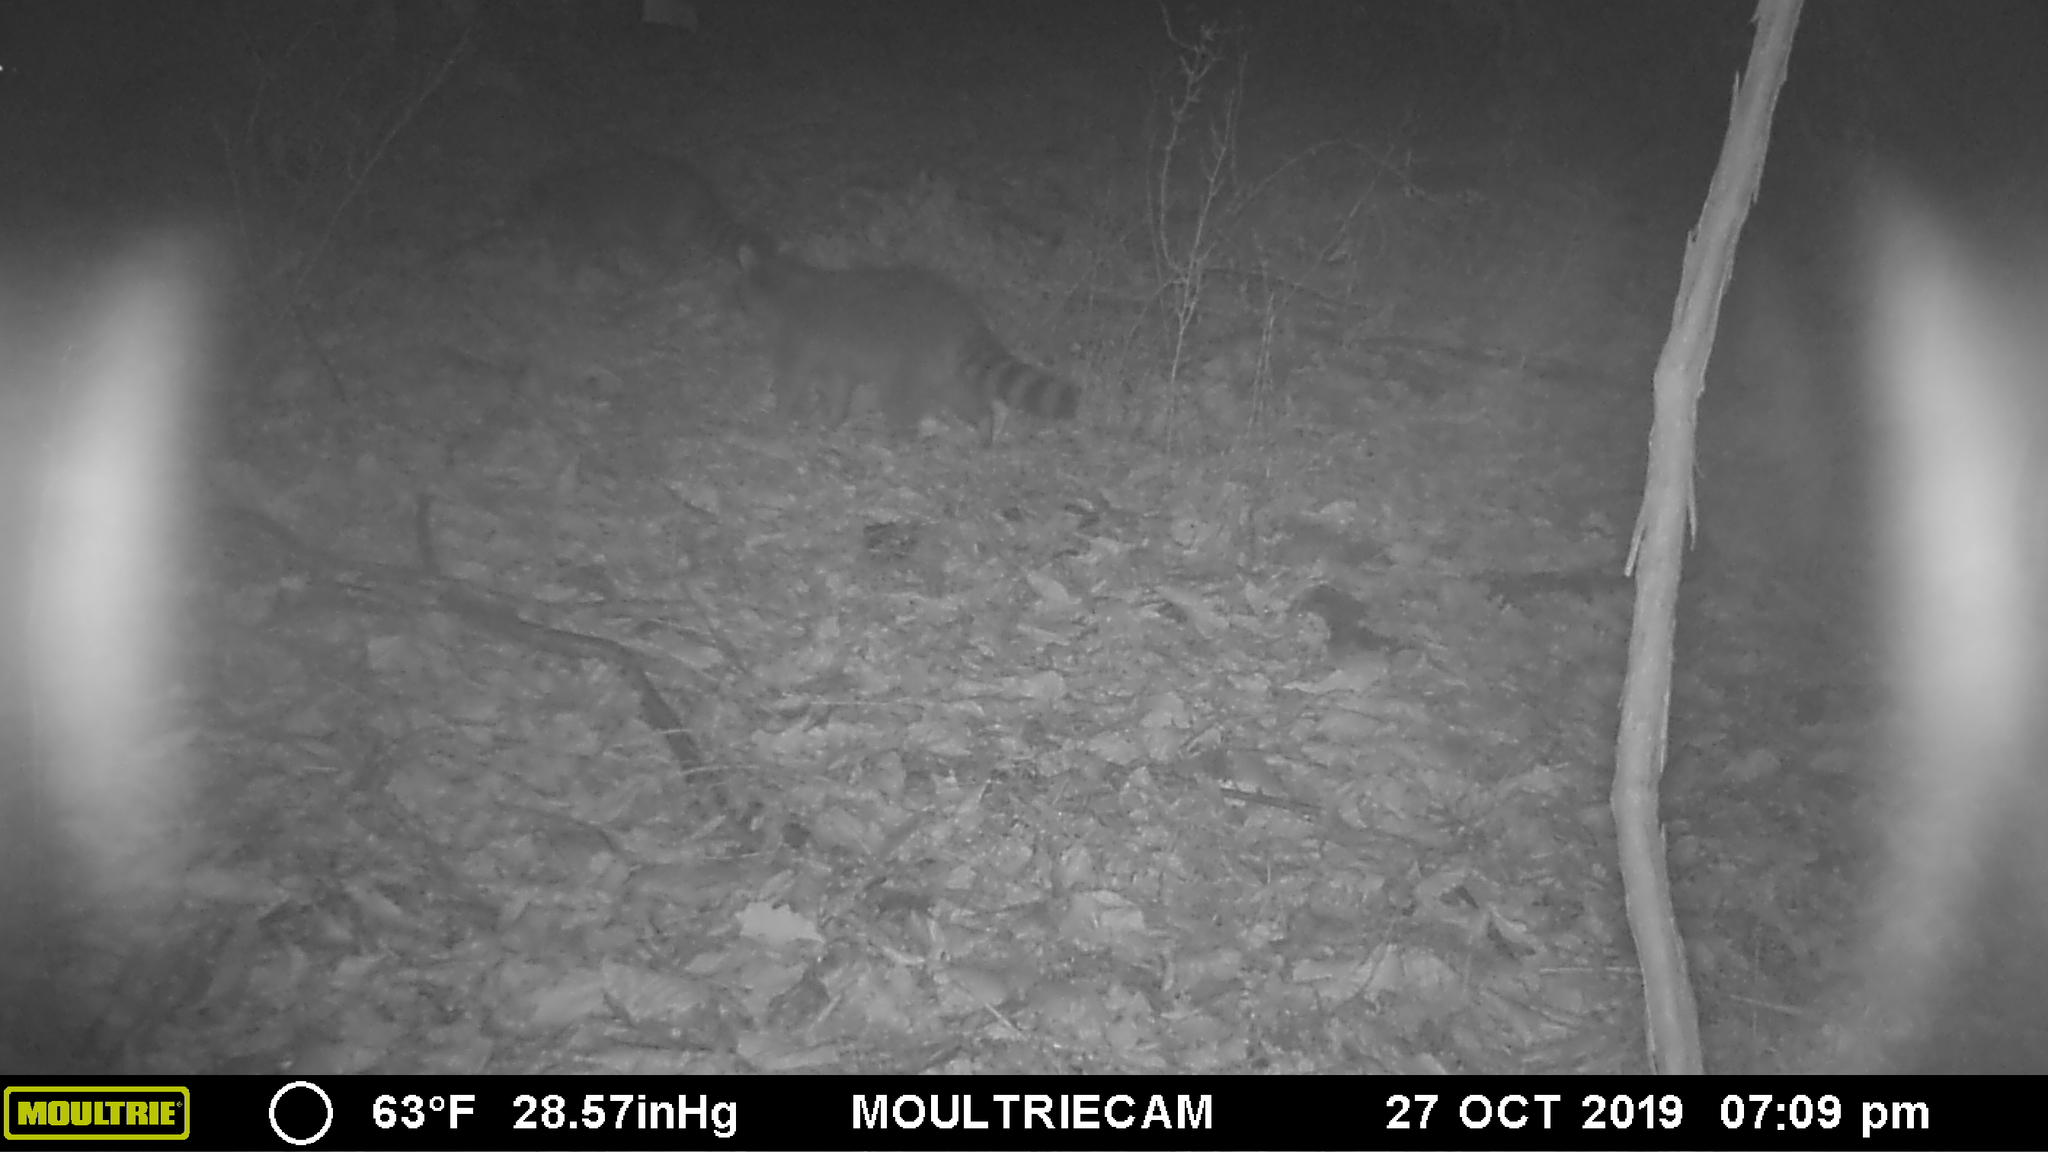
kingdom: Animalia
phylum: Chordata
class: Mammalia
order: Carnivora
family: Procyonidae
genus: Procyon
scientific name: Procyon lotor
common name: Raccoon
